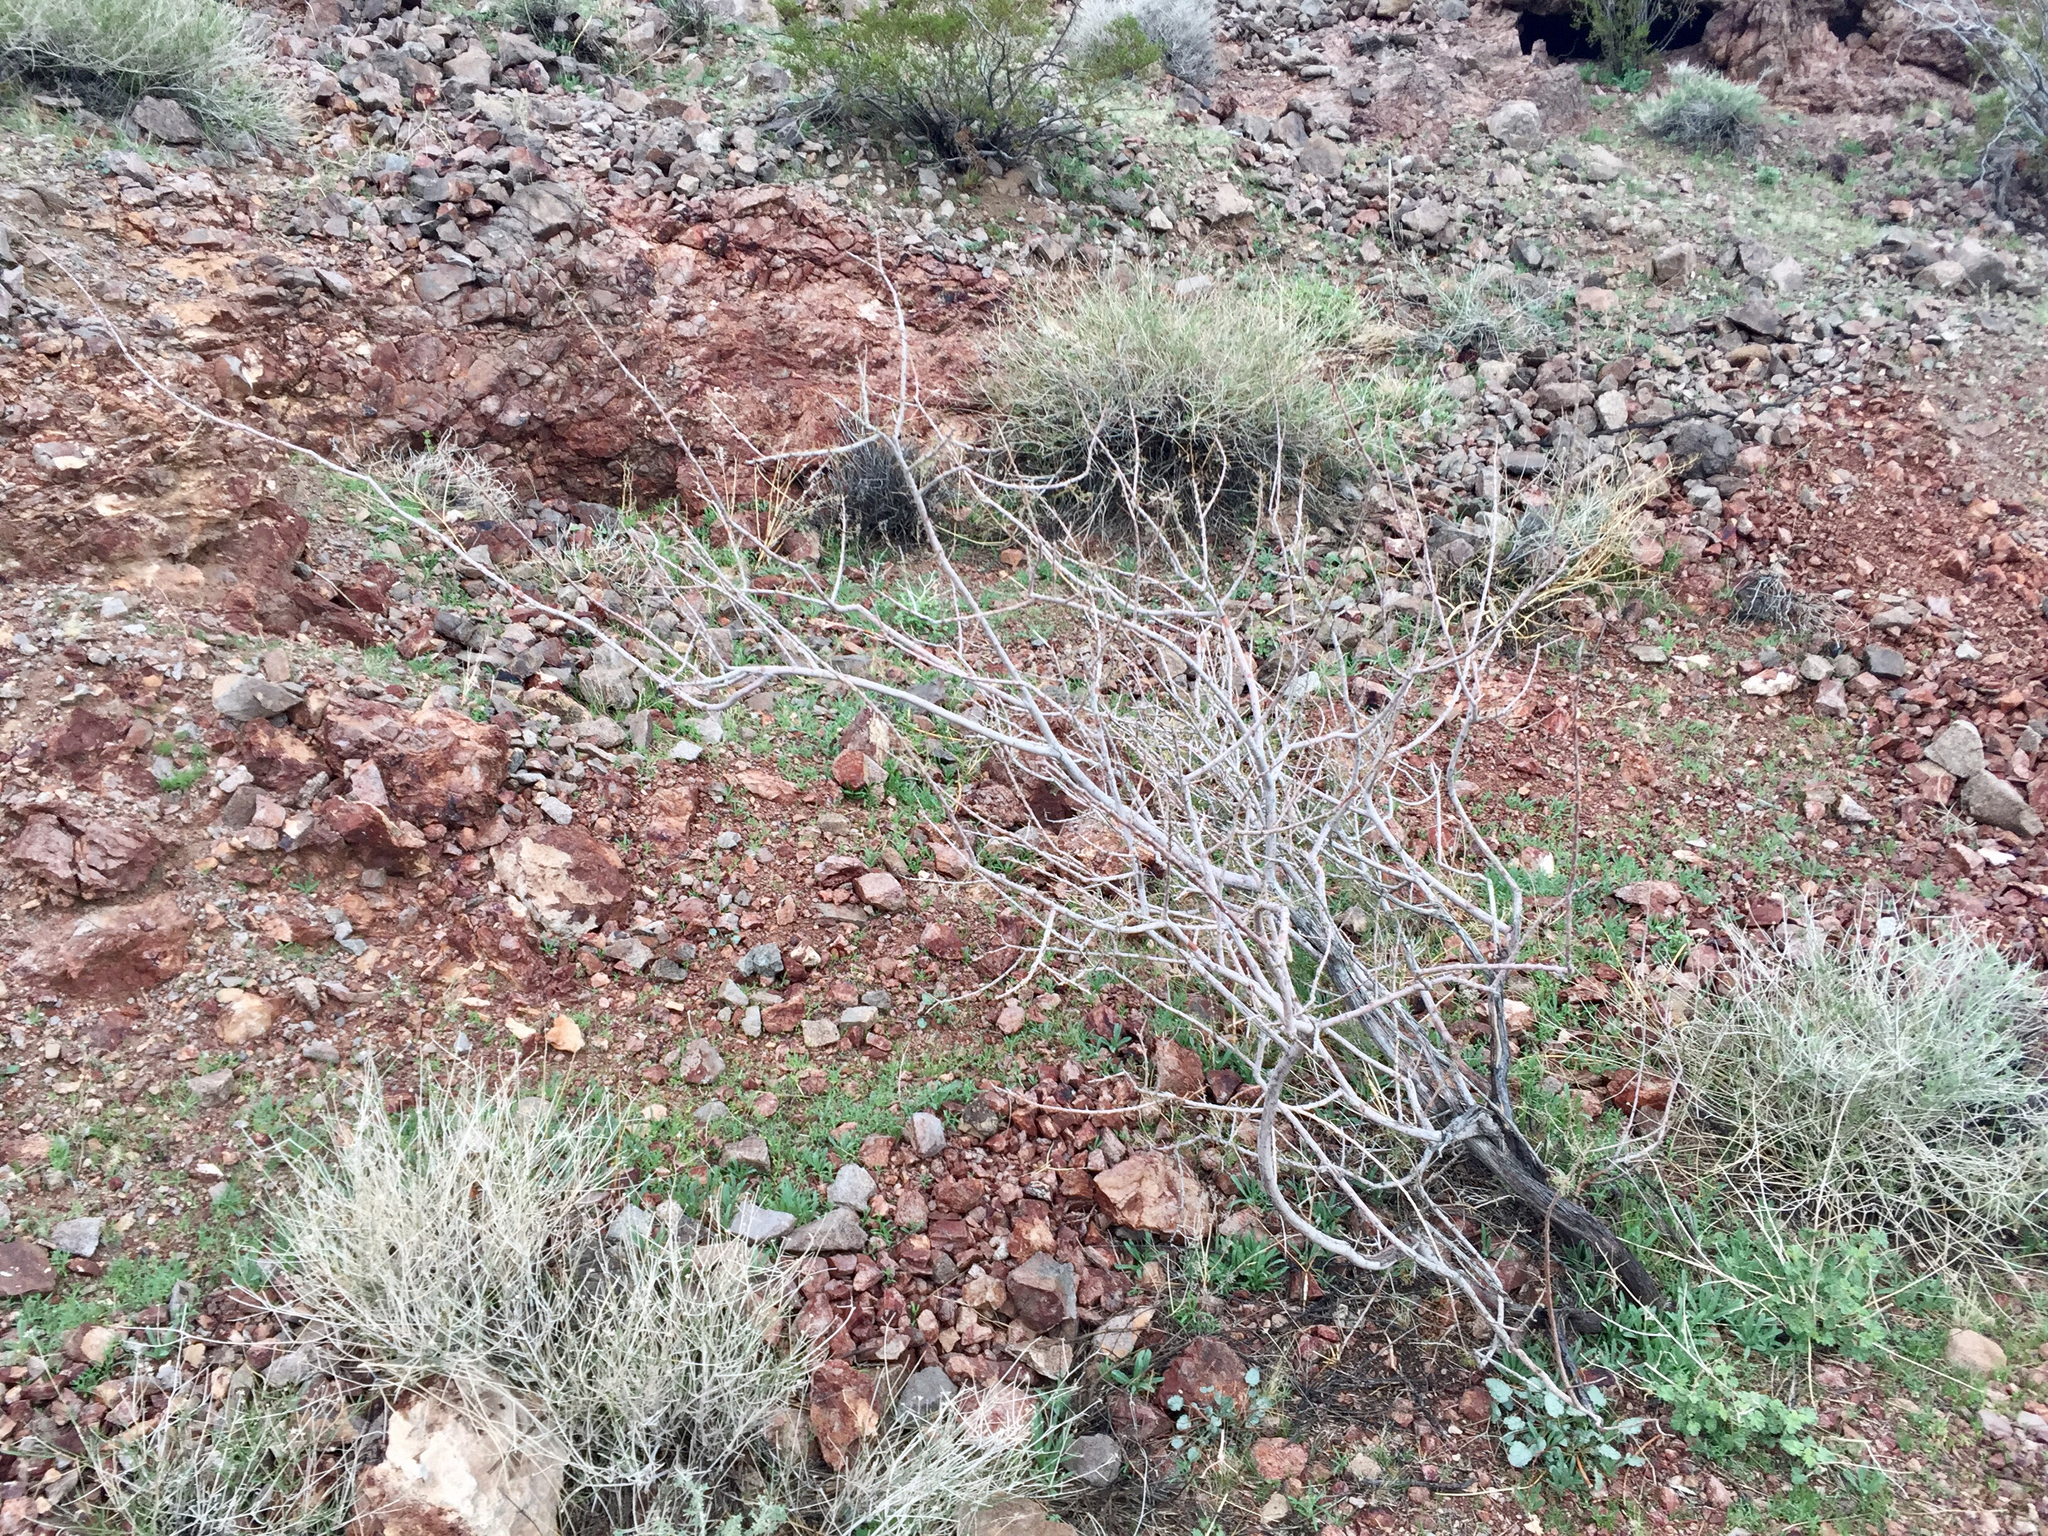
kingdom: Plantae
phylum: Tracheophyta
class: Magnoliopsida
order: Fabales
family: Fabaceae
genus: Senegalia
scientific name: Senegalia greggii
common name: Texas-mimosa
